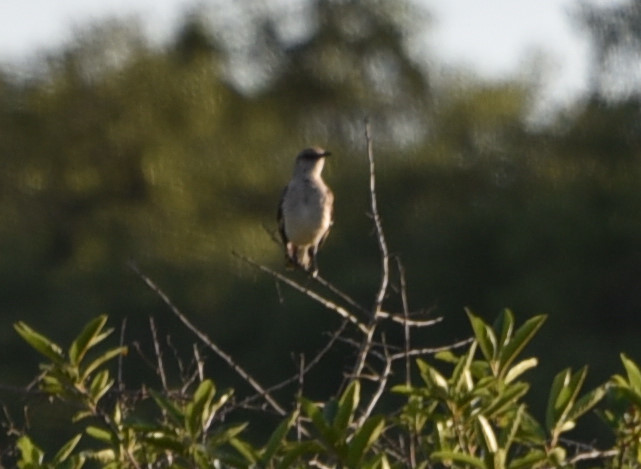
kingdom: Animalia
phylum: Chordata
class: Aves
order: Passeriformes
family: Mimidae
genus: Mimus
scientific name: Mimus polyglottos
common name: Northern mockingbird
